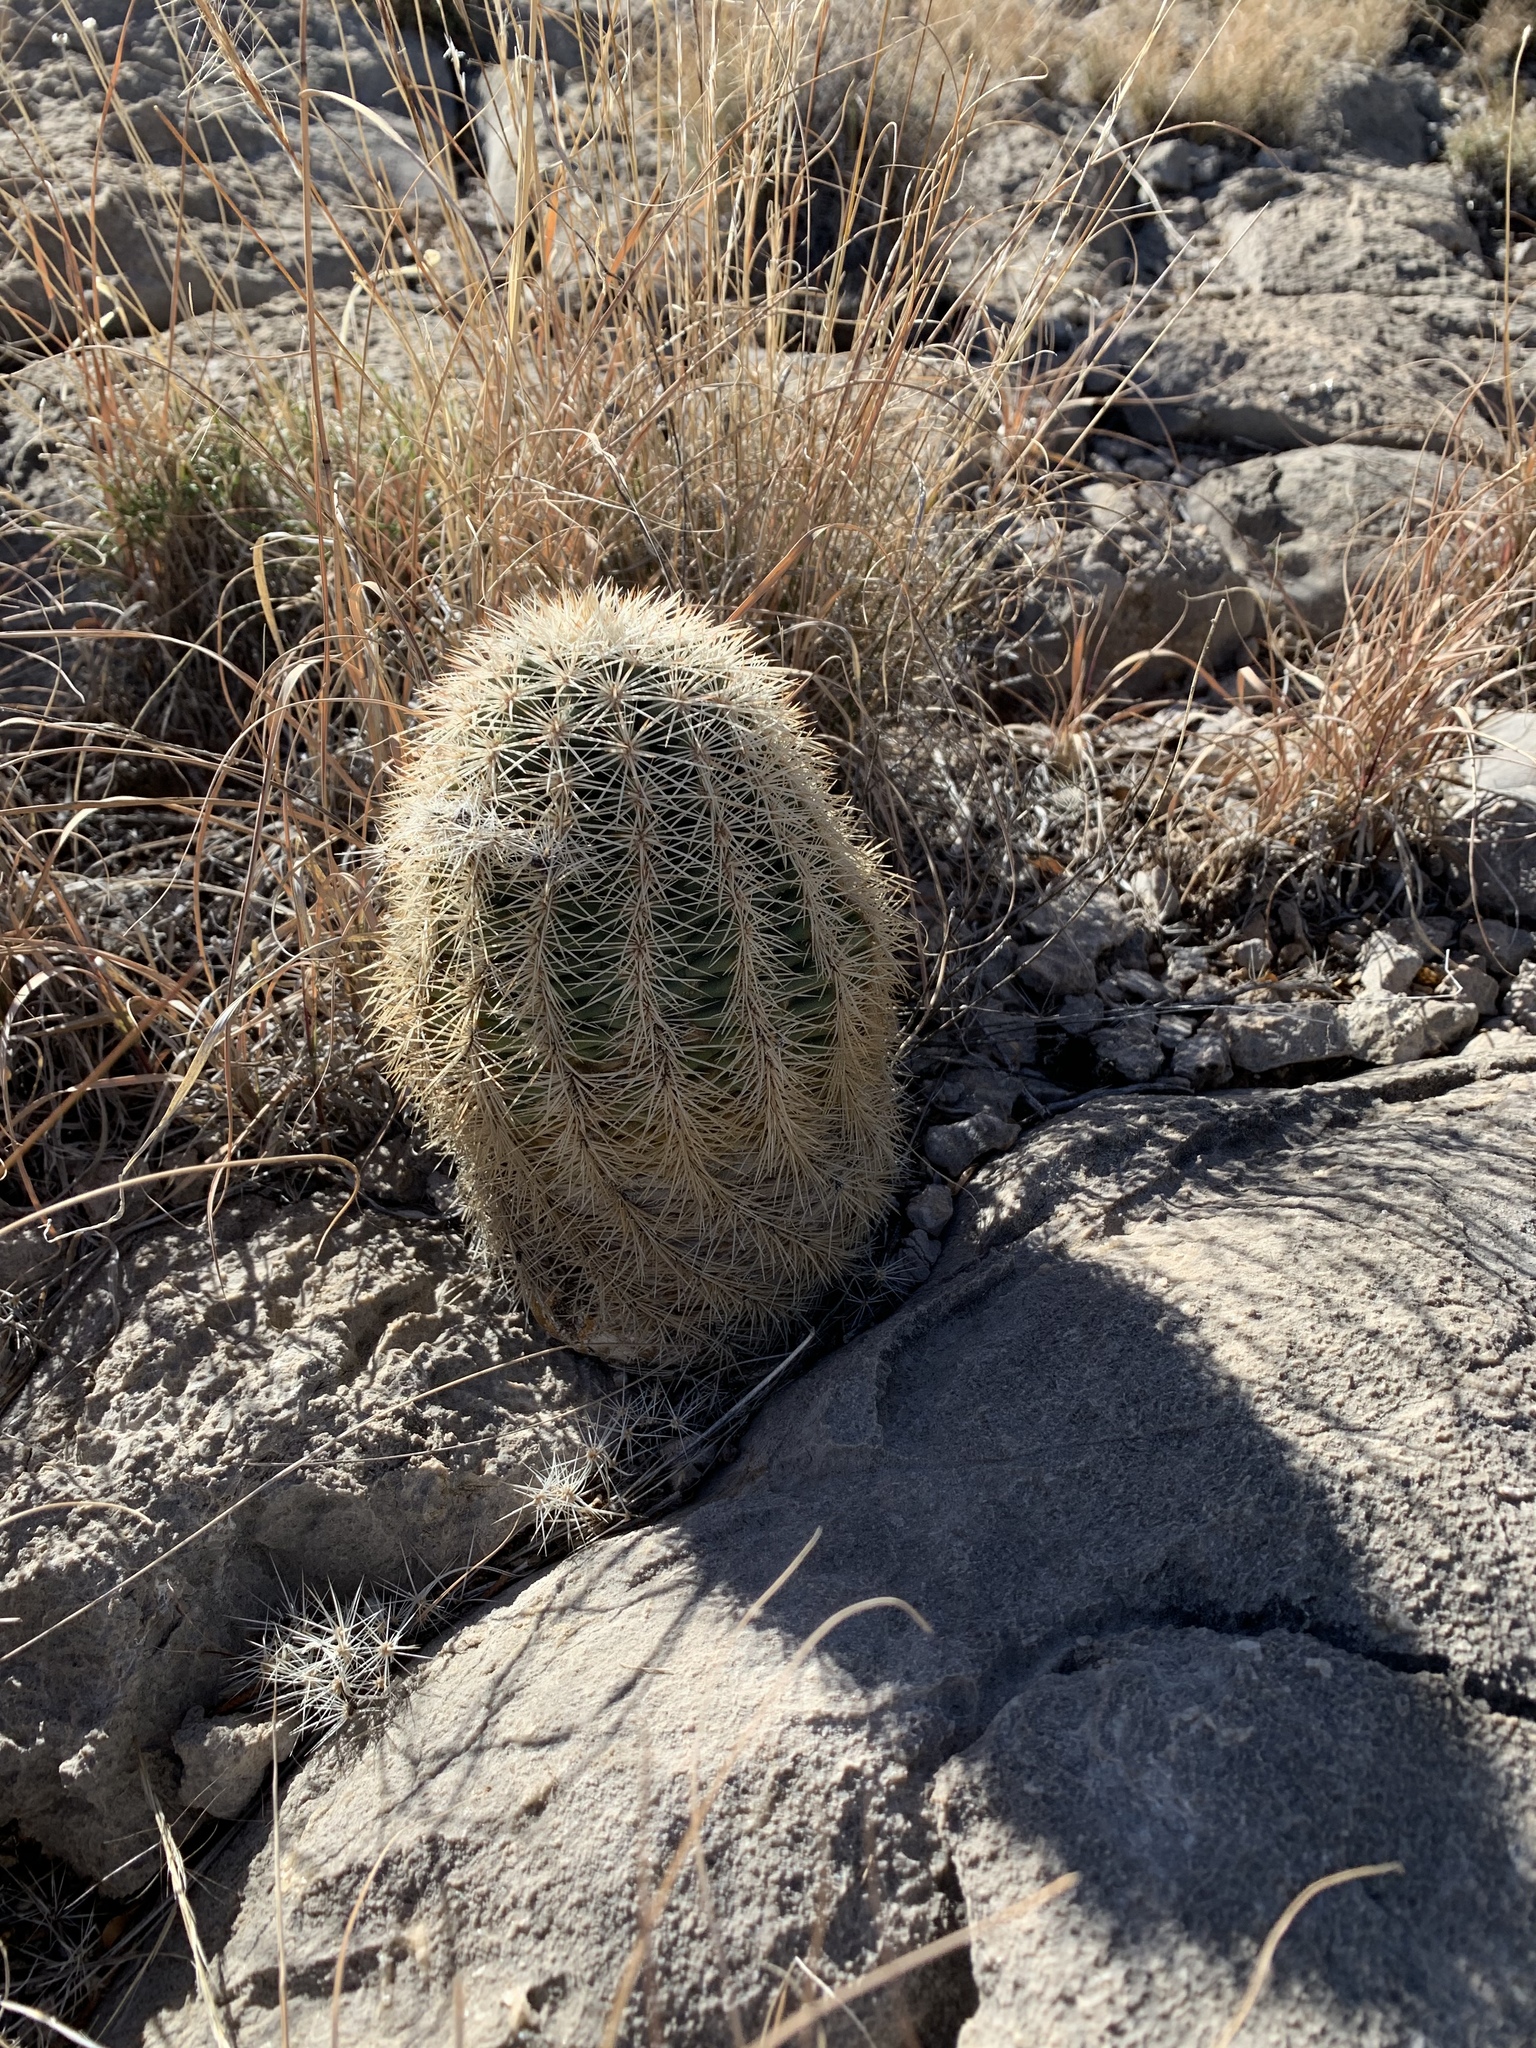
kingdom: Plantae
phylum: Tracheophyta
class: Magnoliopsida
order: Caryophyllales
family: Cactaceae
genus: Echinocereus
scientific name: Echinocereus dasyacanthus
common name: Spiny hedgehog cactus
